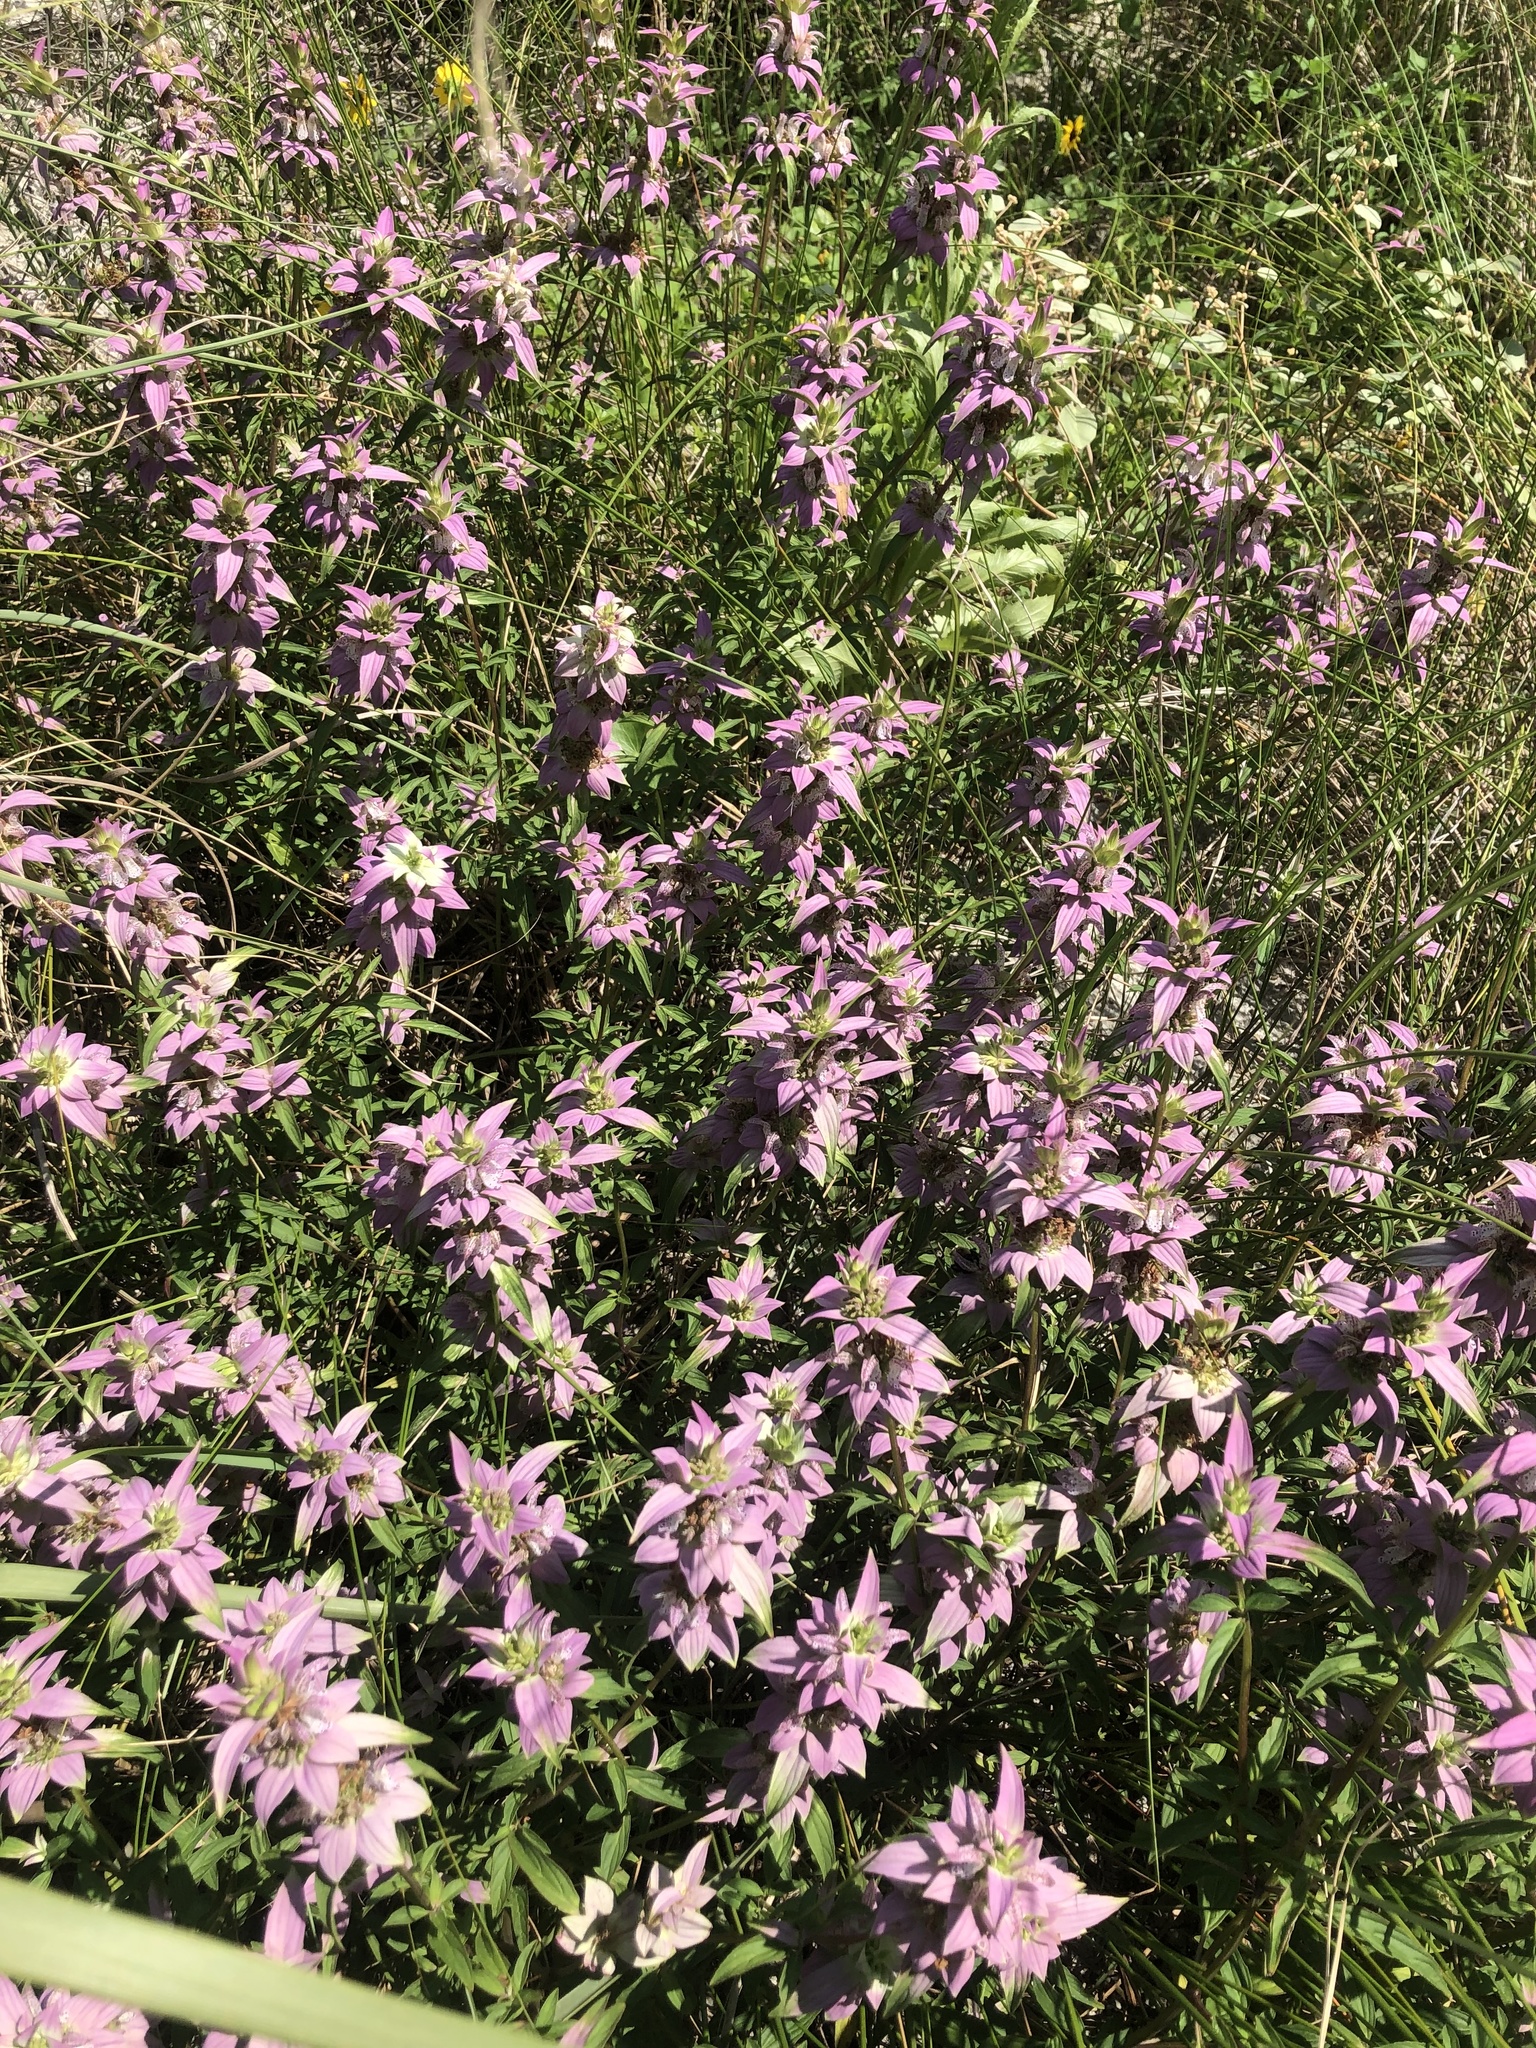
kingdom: Plantae
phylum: Tracheophyta
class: Magnoliopsida
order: Lamiales
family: Lamiaceae
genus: Monarda
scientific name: Monarda punctata
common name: Dotted monarda
